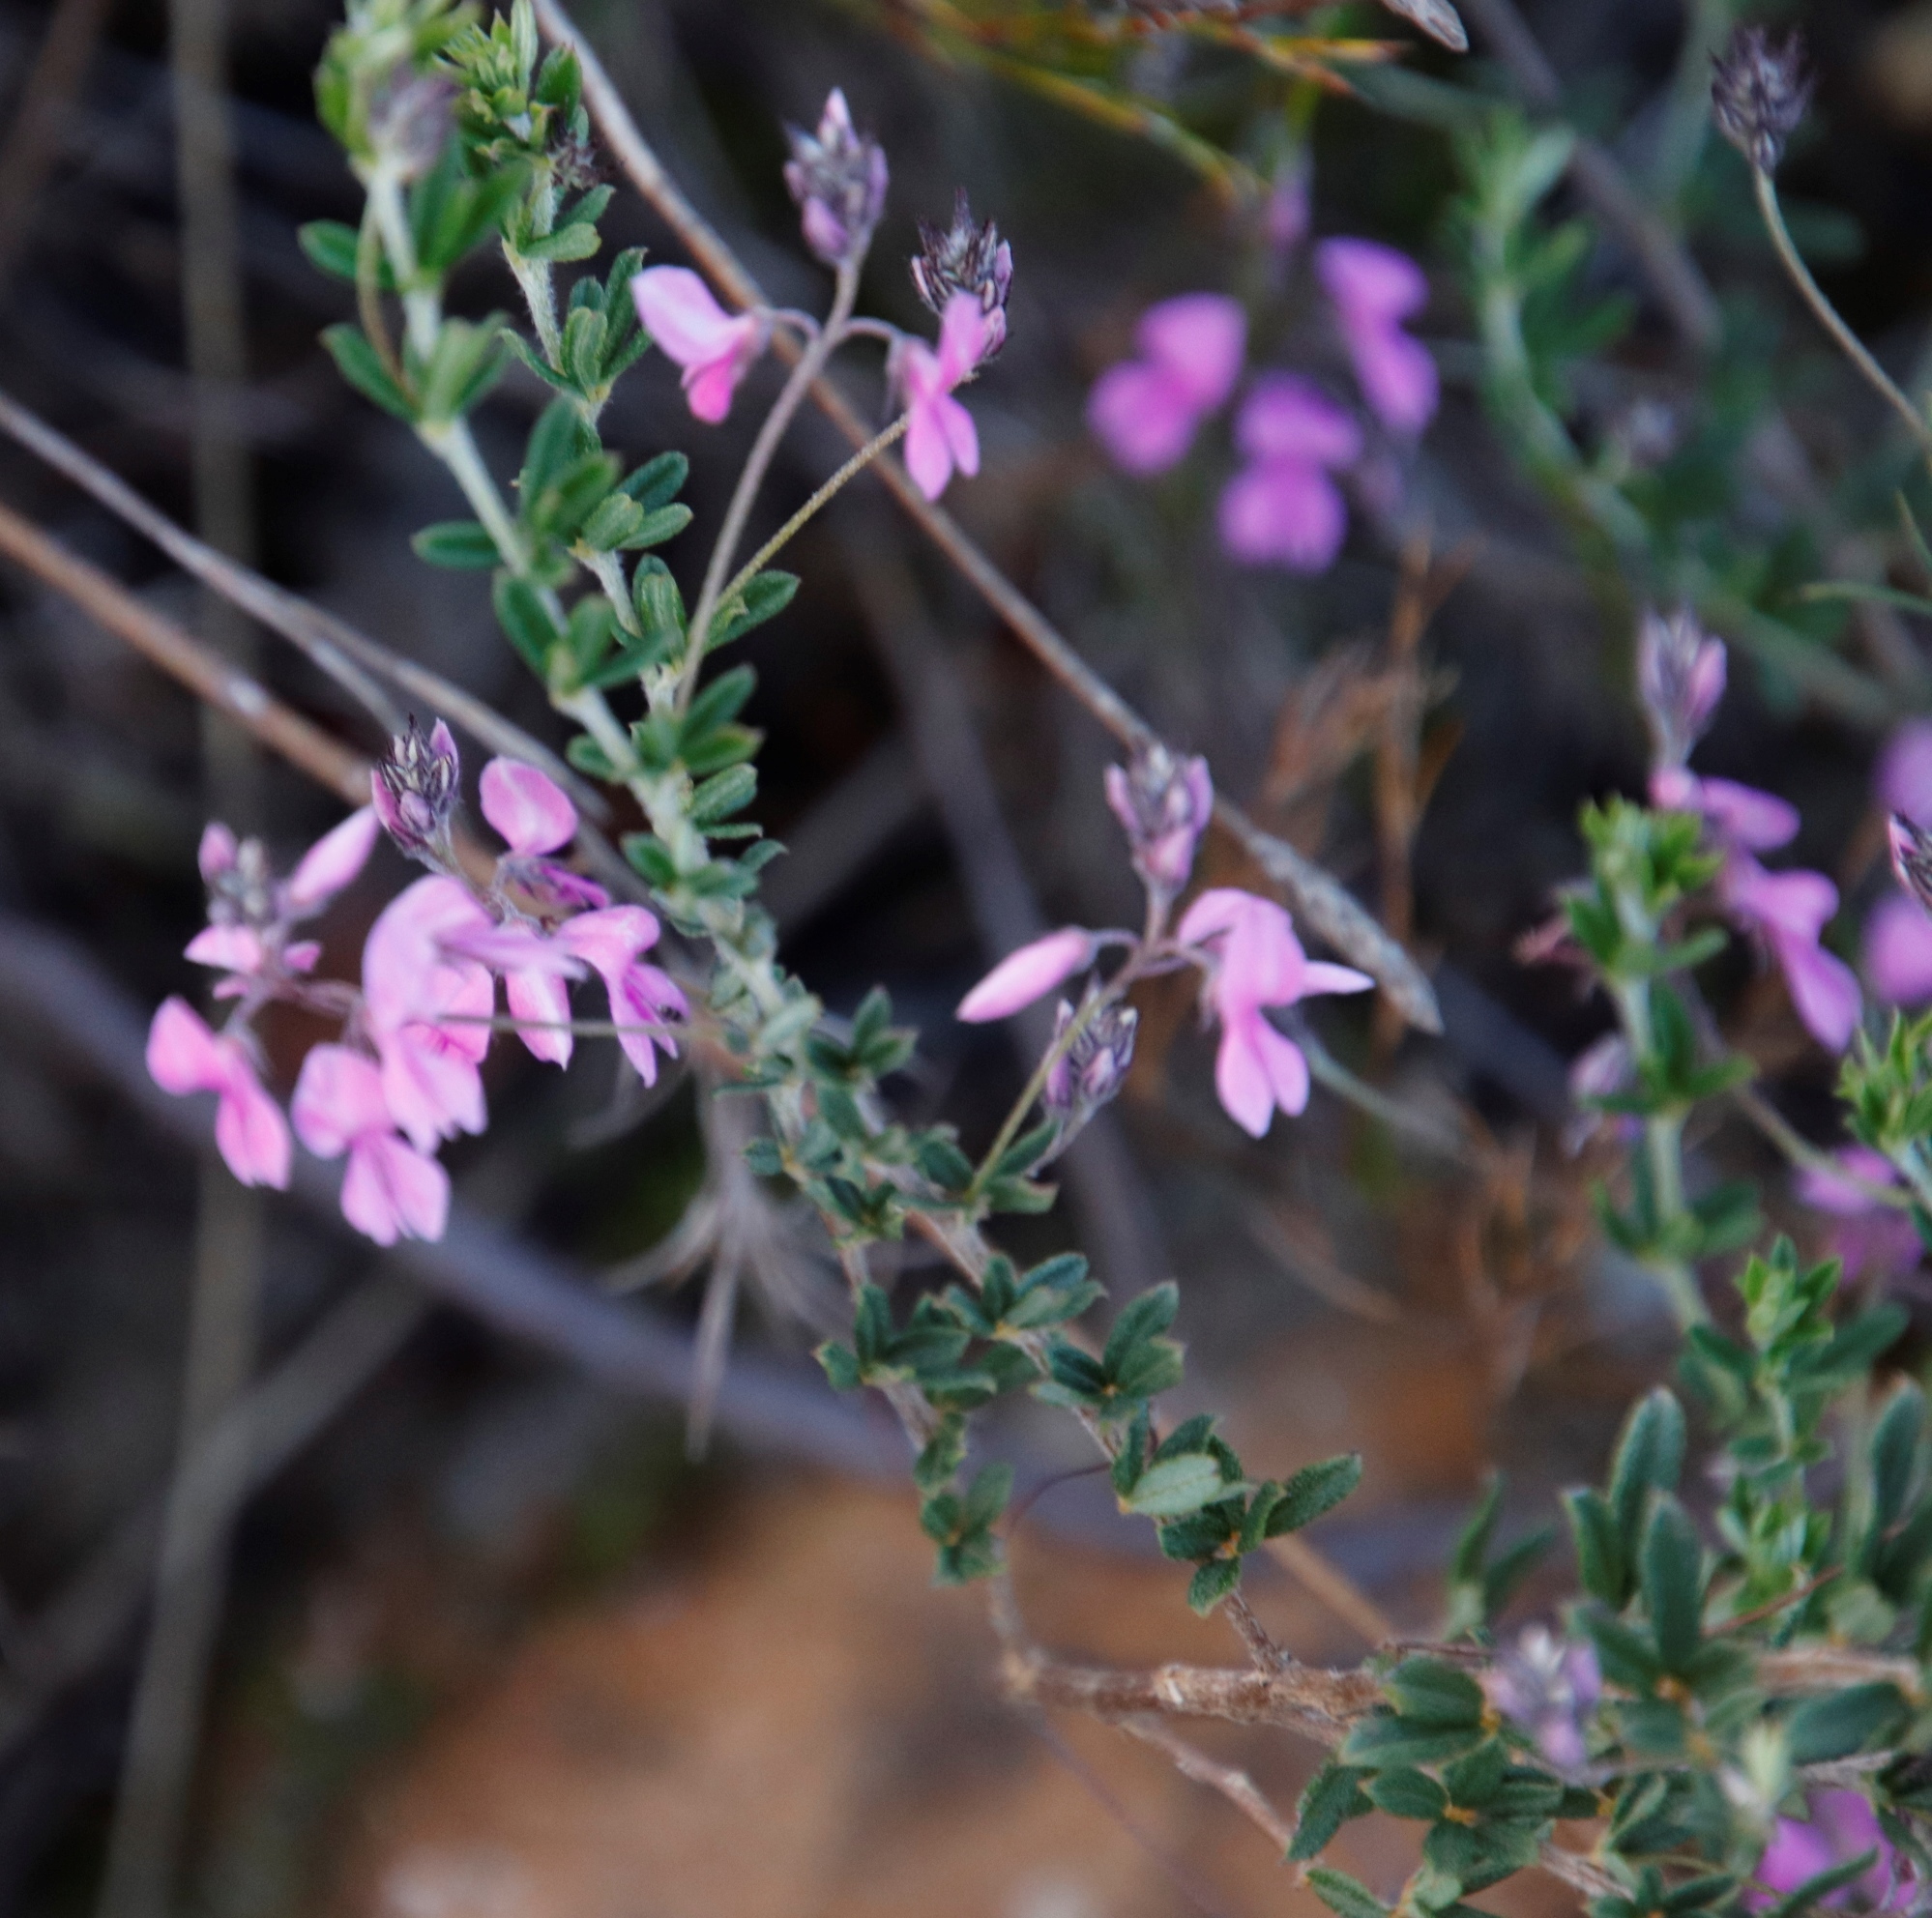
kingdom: Plantae
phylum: Tracheophyta
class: Magnoliopsida
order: Fabales
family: Fabaceae
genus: Indigofera
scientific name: Indigofera filiformis
